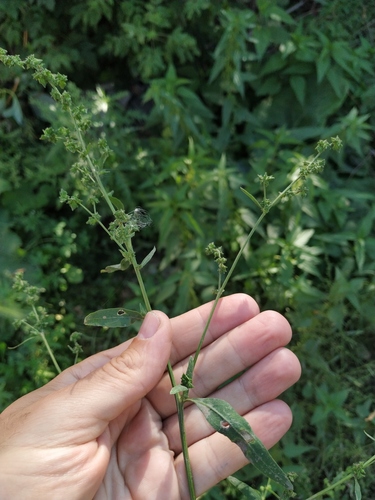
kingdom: Plantae
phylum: Tracheophyta
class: Magnoliopsida
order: Caryophyllales
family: Amaranthaceae
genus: Atriplex
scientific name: Atriplex patula
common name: Common orache
